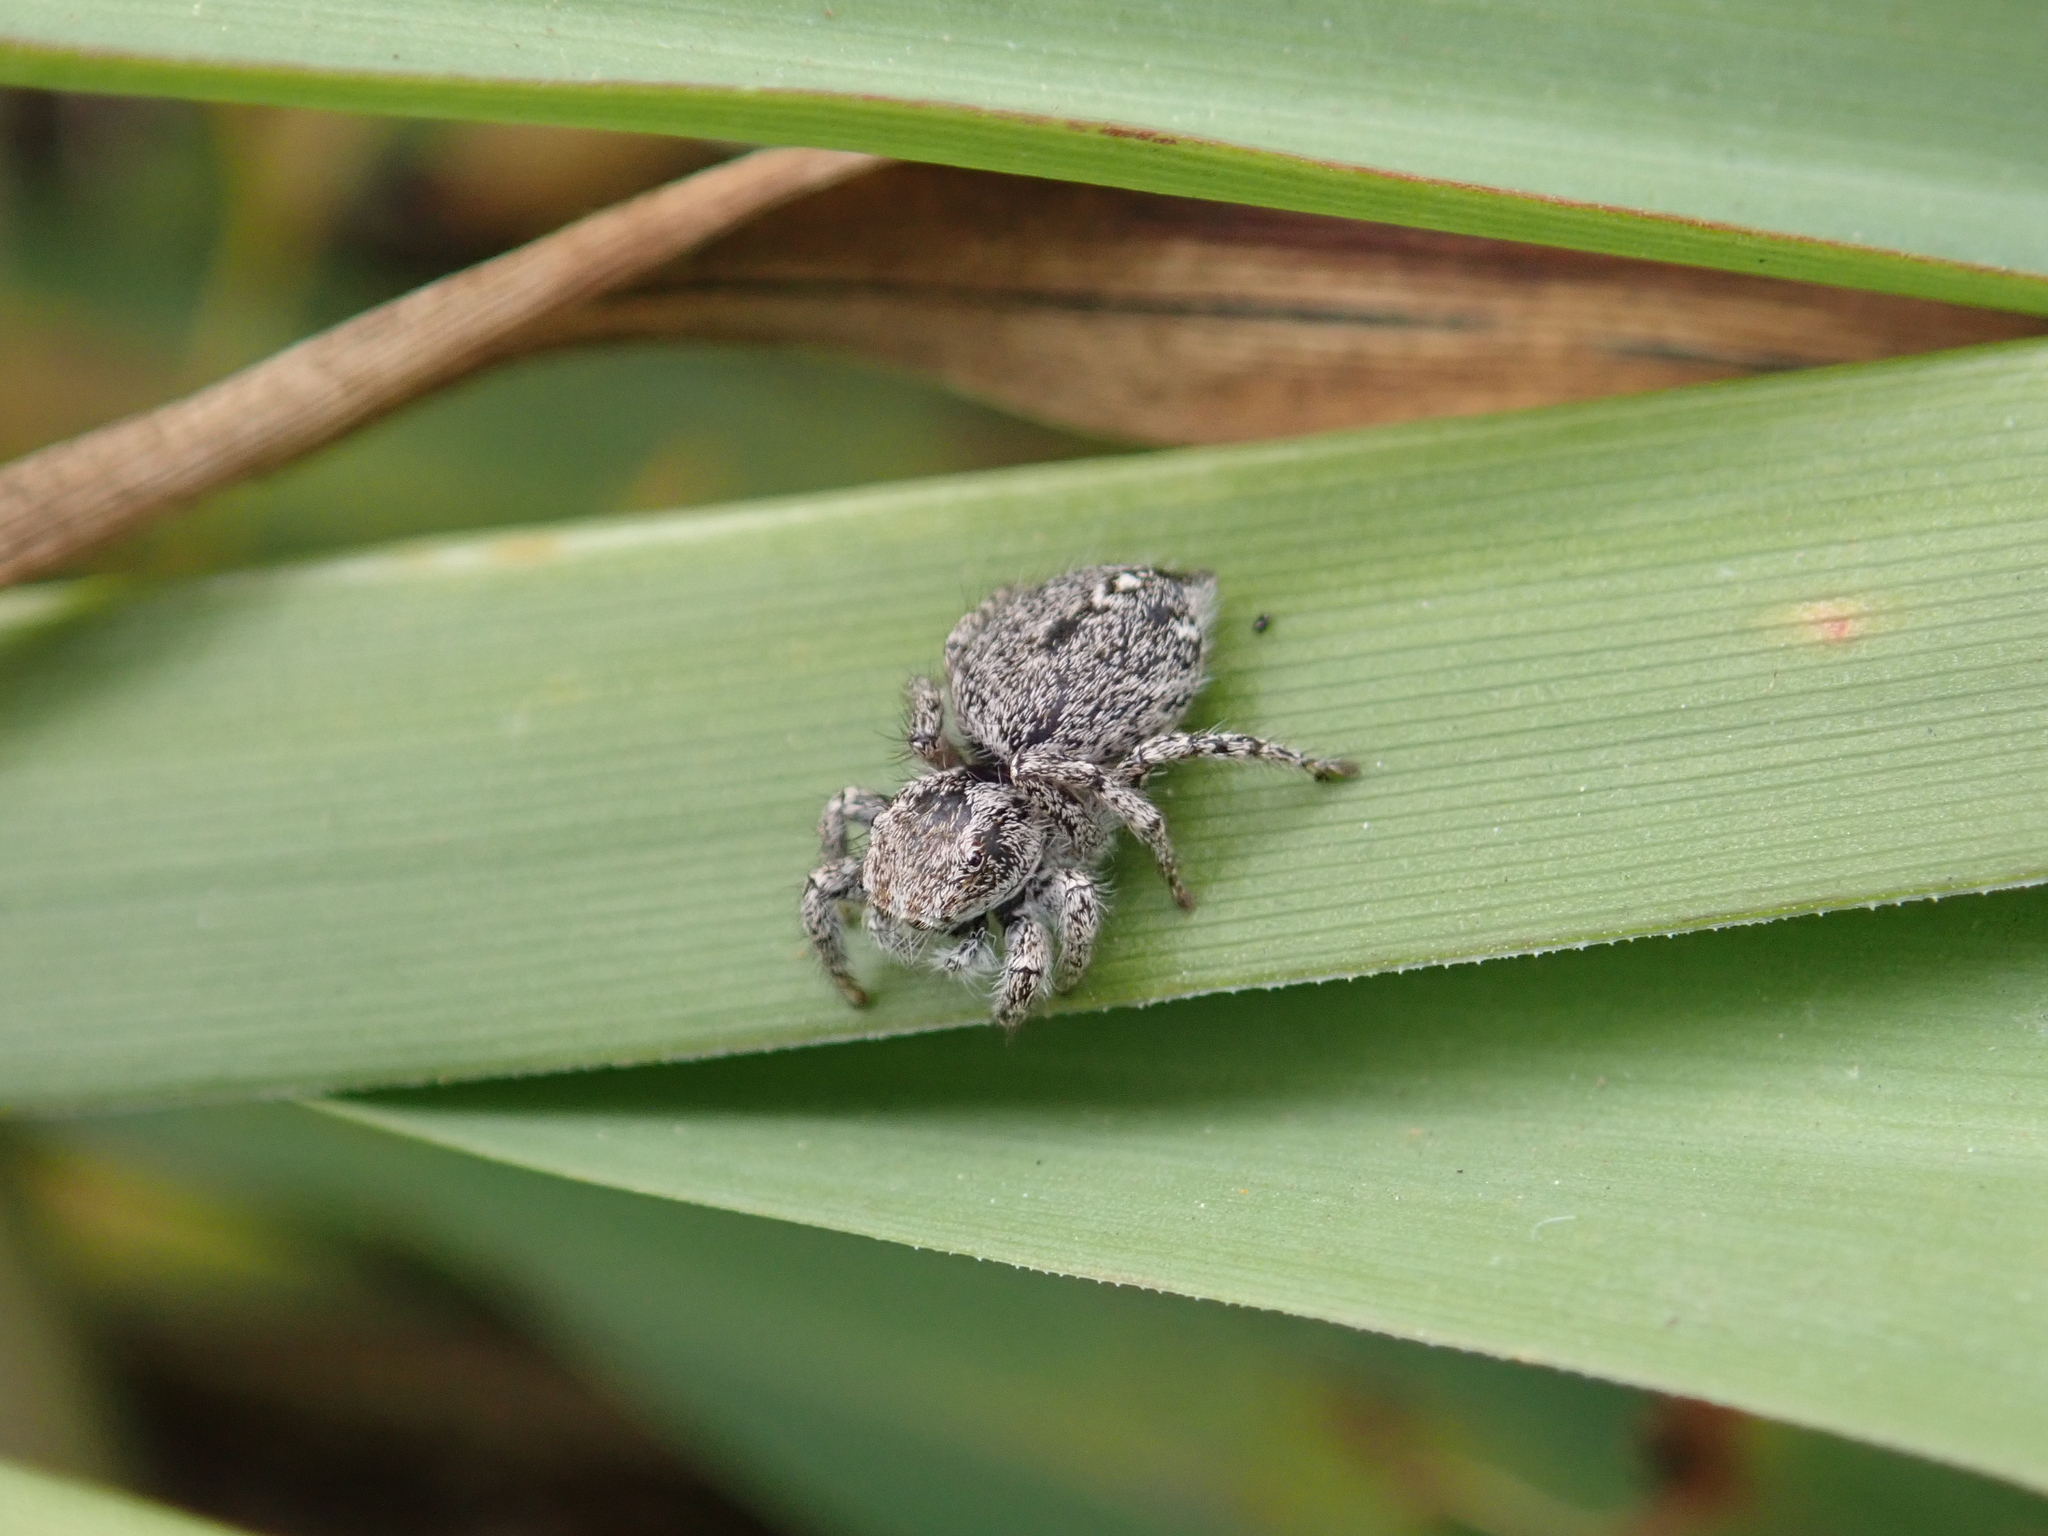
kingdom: Animalia
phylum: Arthropoda
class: Arachnida
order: Araneae
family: Salticidae
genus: Habronattus
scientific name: Habronattus peckhami
